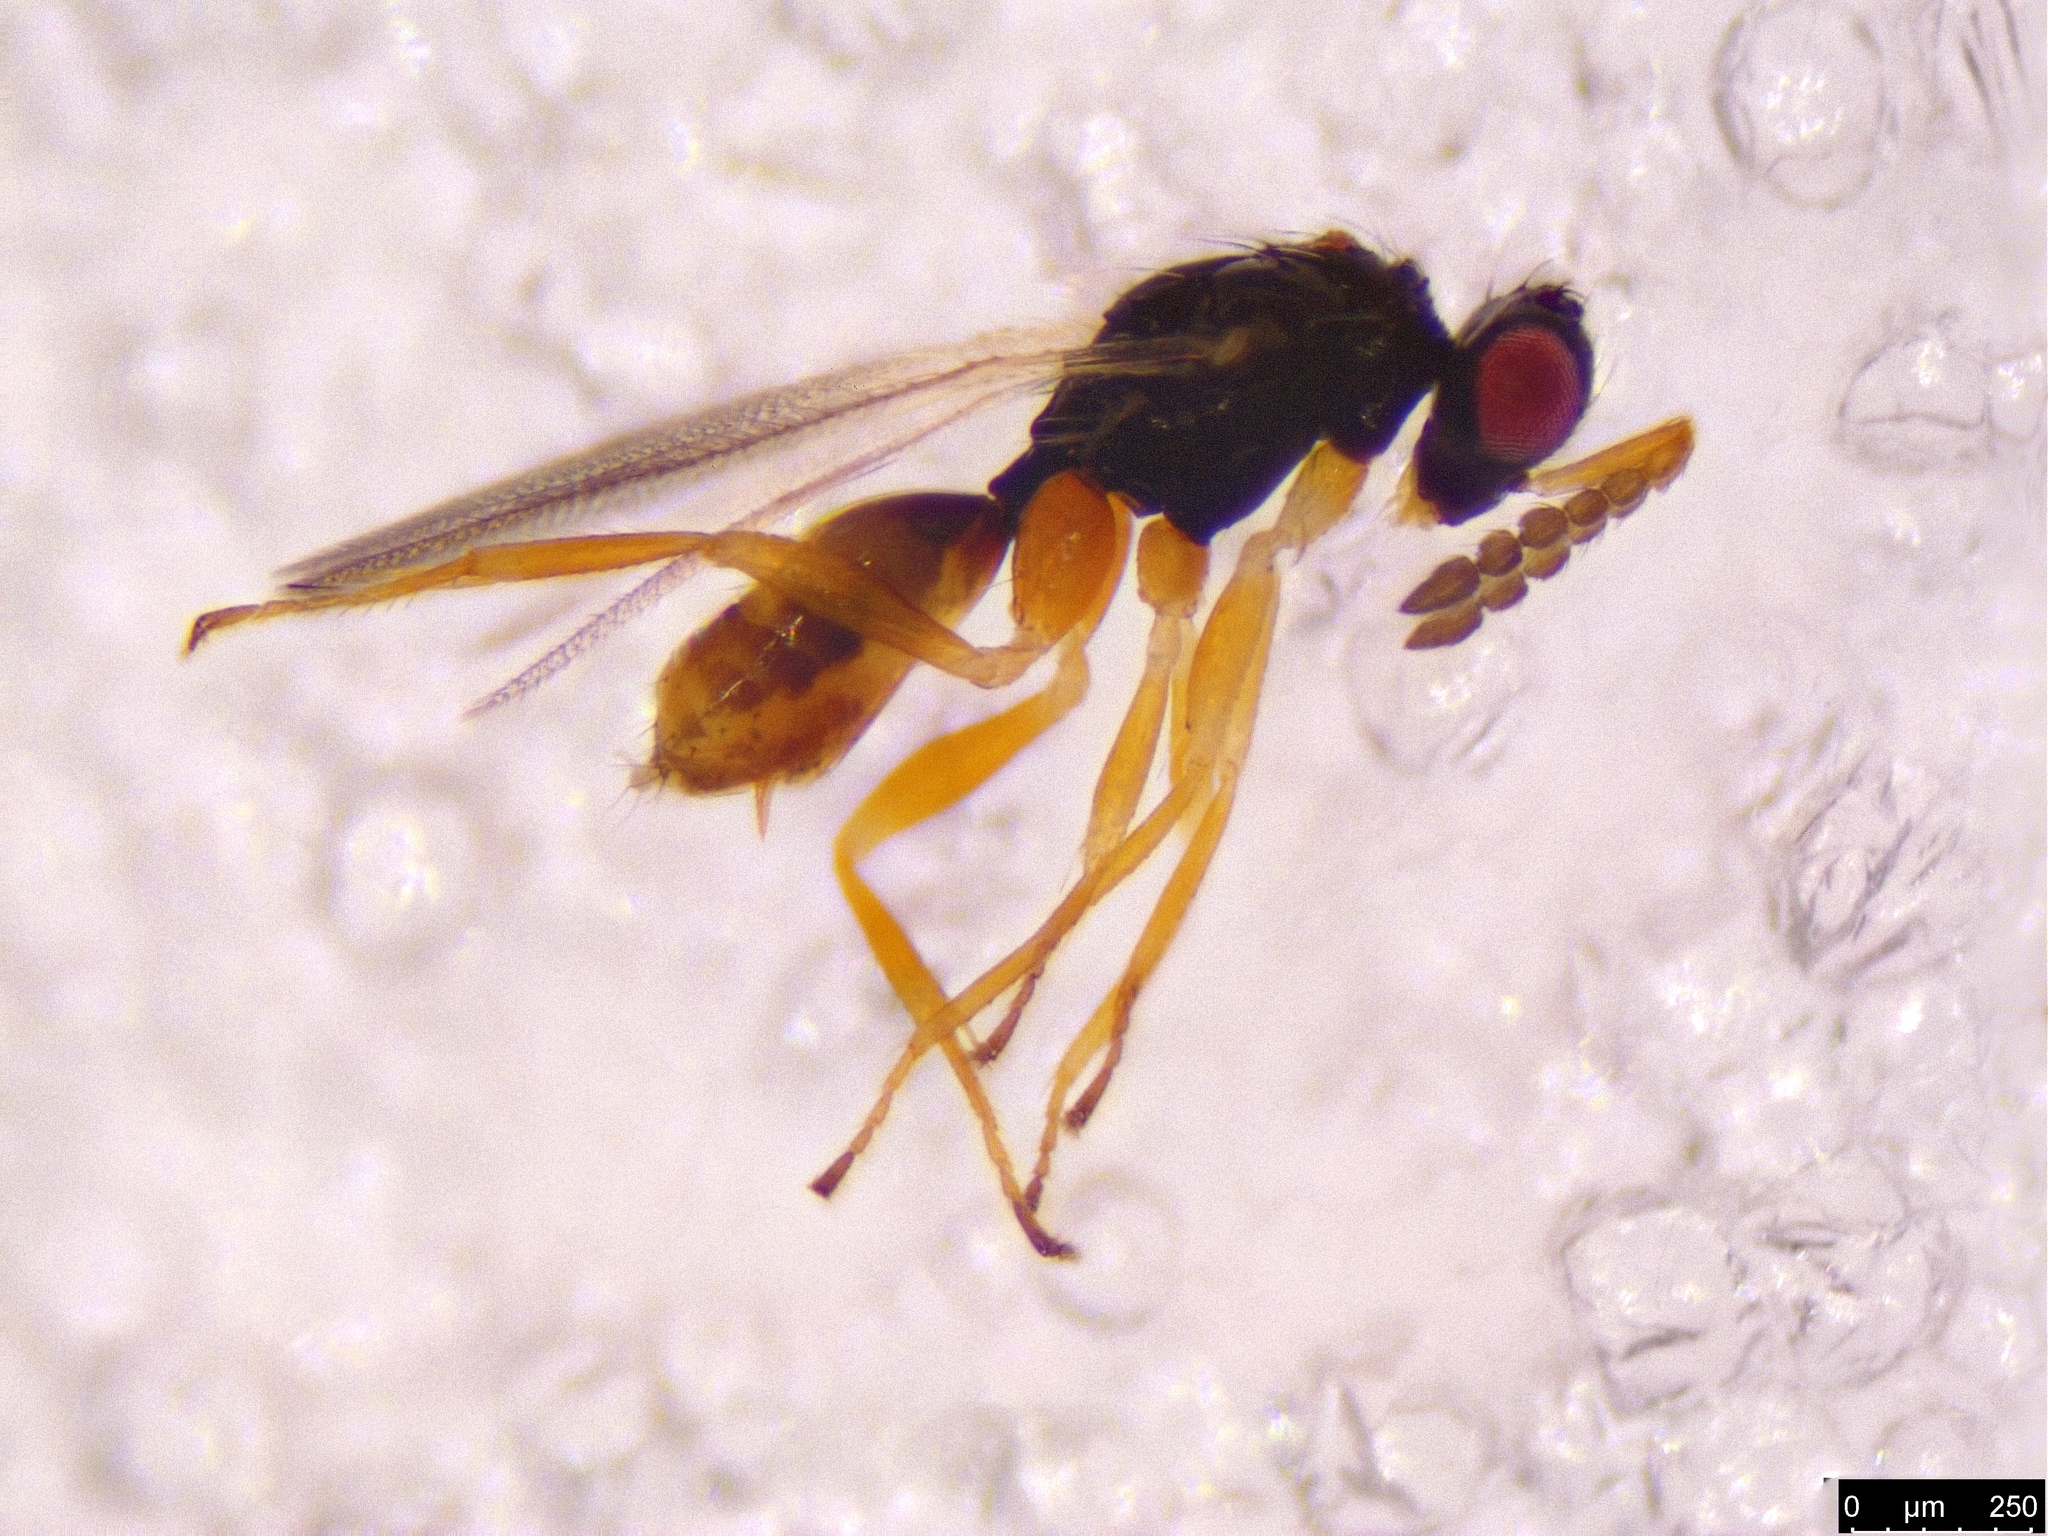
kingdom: Animalia
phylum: Arthropoda
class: Insecta
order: Hymenoptera
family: Eulophidae
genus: Euplectrus
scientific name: Euplectrus
